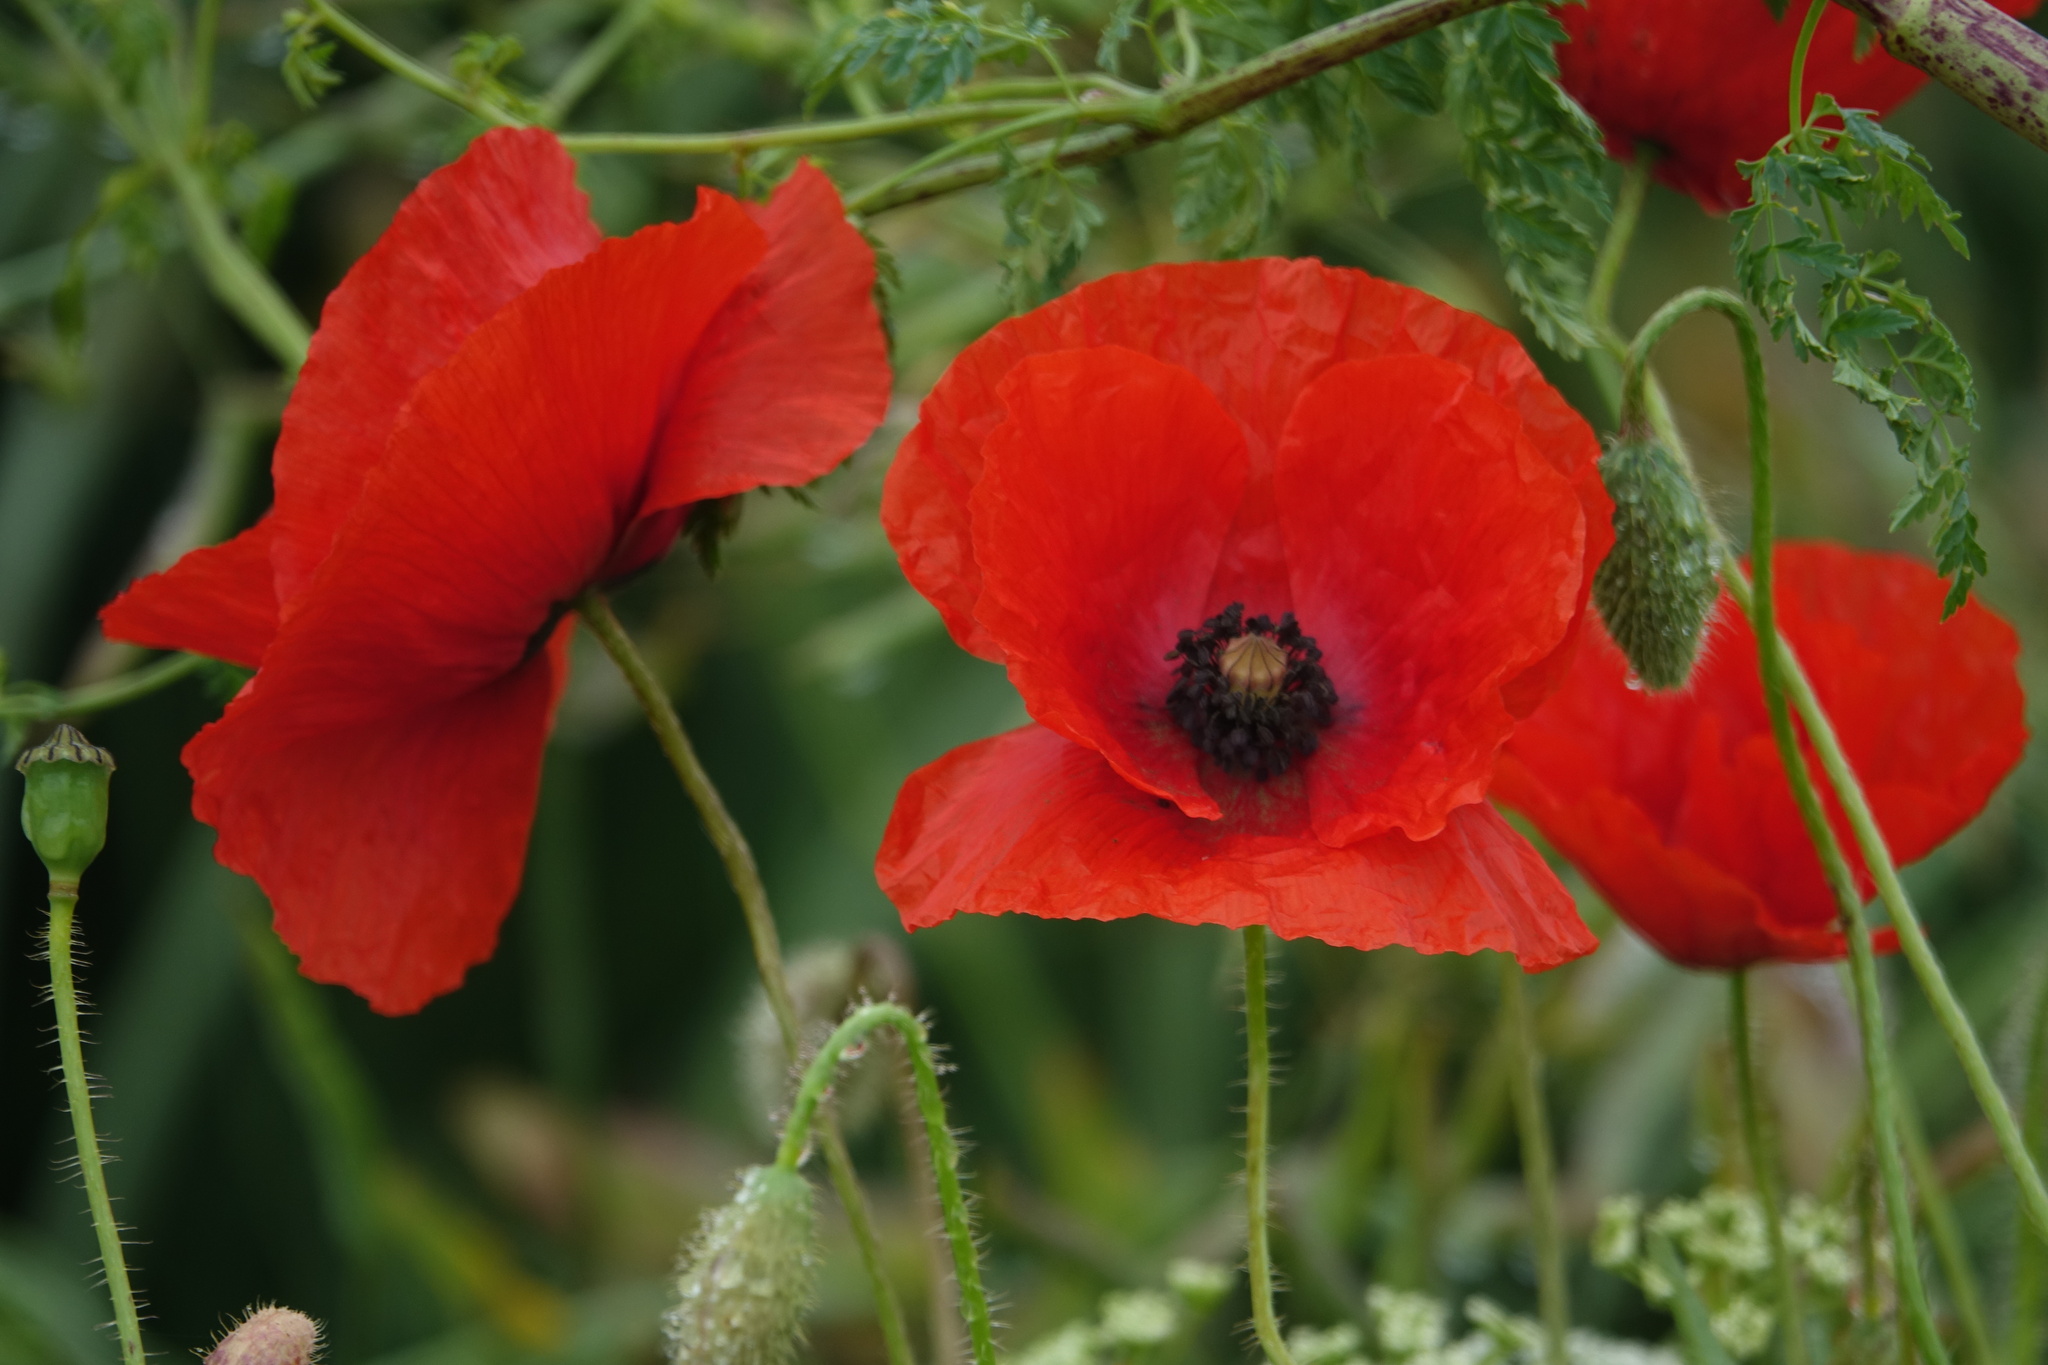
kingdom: Plantae
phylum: Tracheophyta
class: Magnoliopsida
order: Ranunculales
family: Papaveraceae
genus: Papaver
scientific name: Papaver rhoeas
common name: Corn poppy
